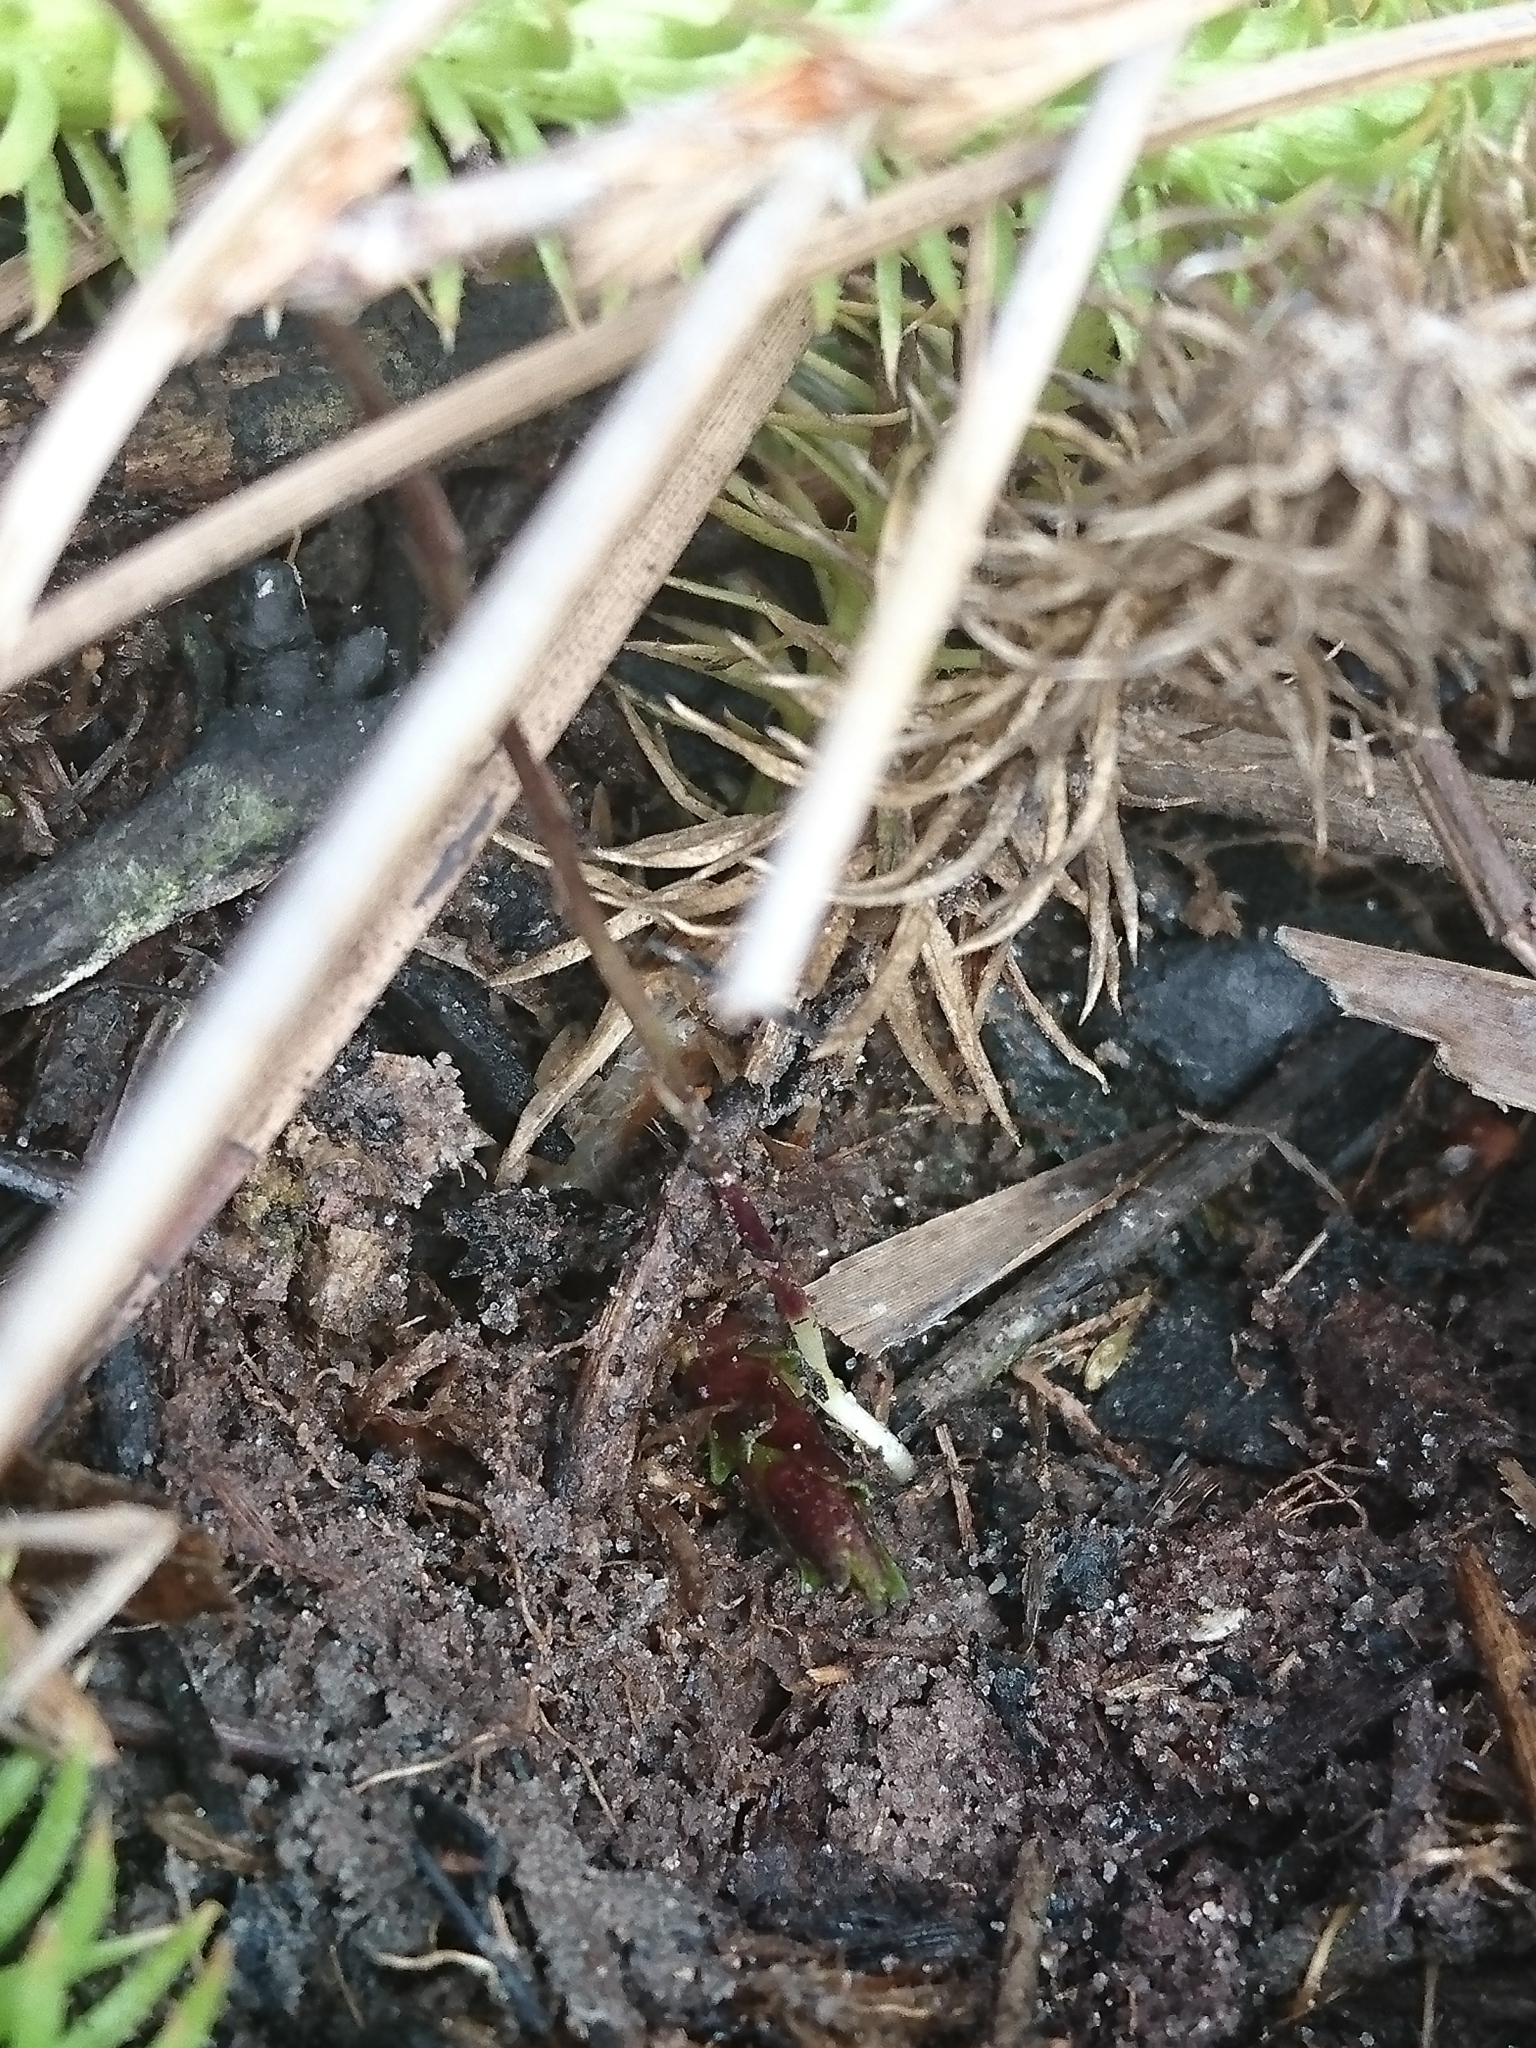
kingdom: Plantae
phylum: Tracheophyta
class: Magnoliopsida
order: Gentianales
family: Gentianaceae
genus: Bartonia
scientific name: Bartonia verna
